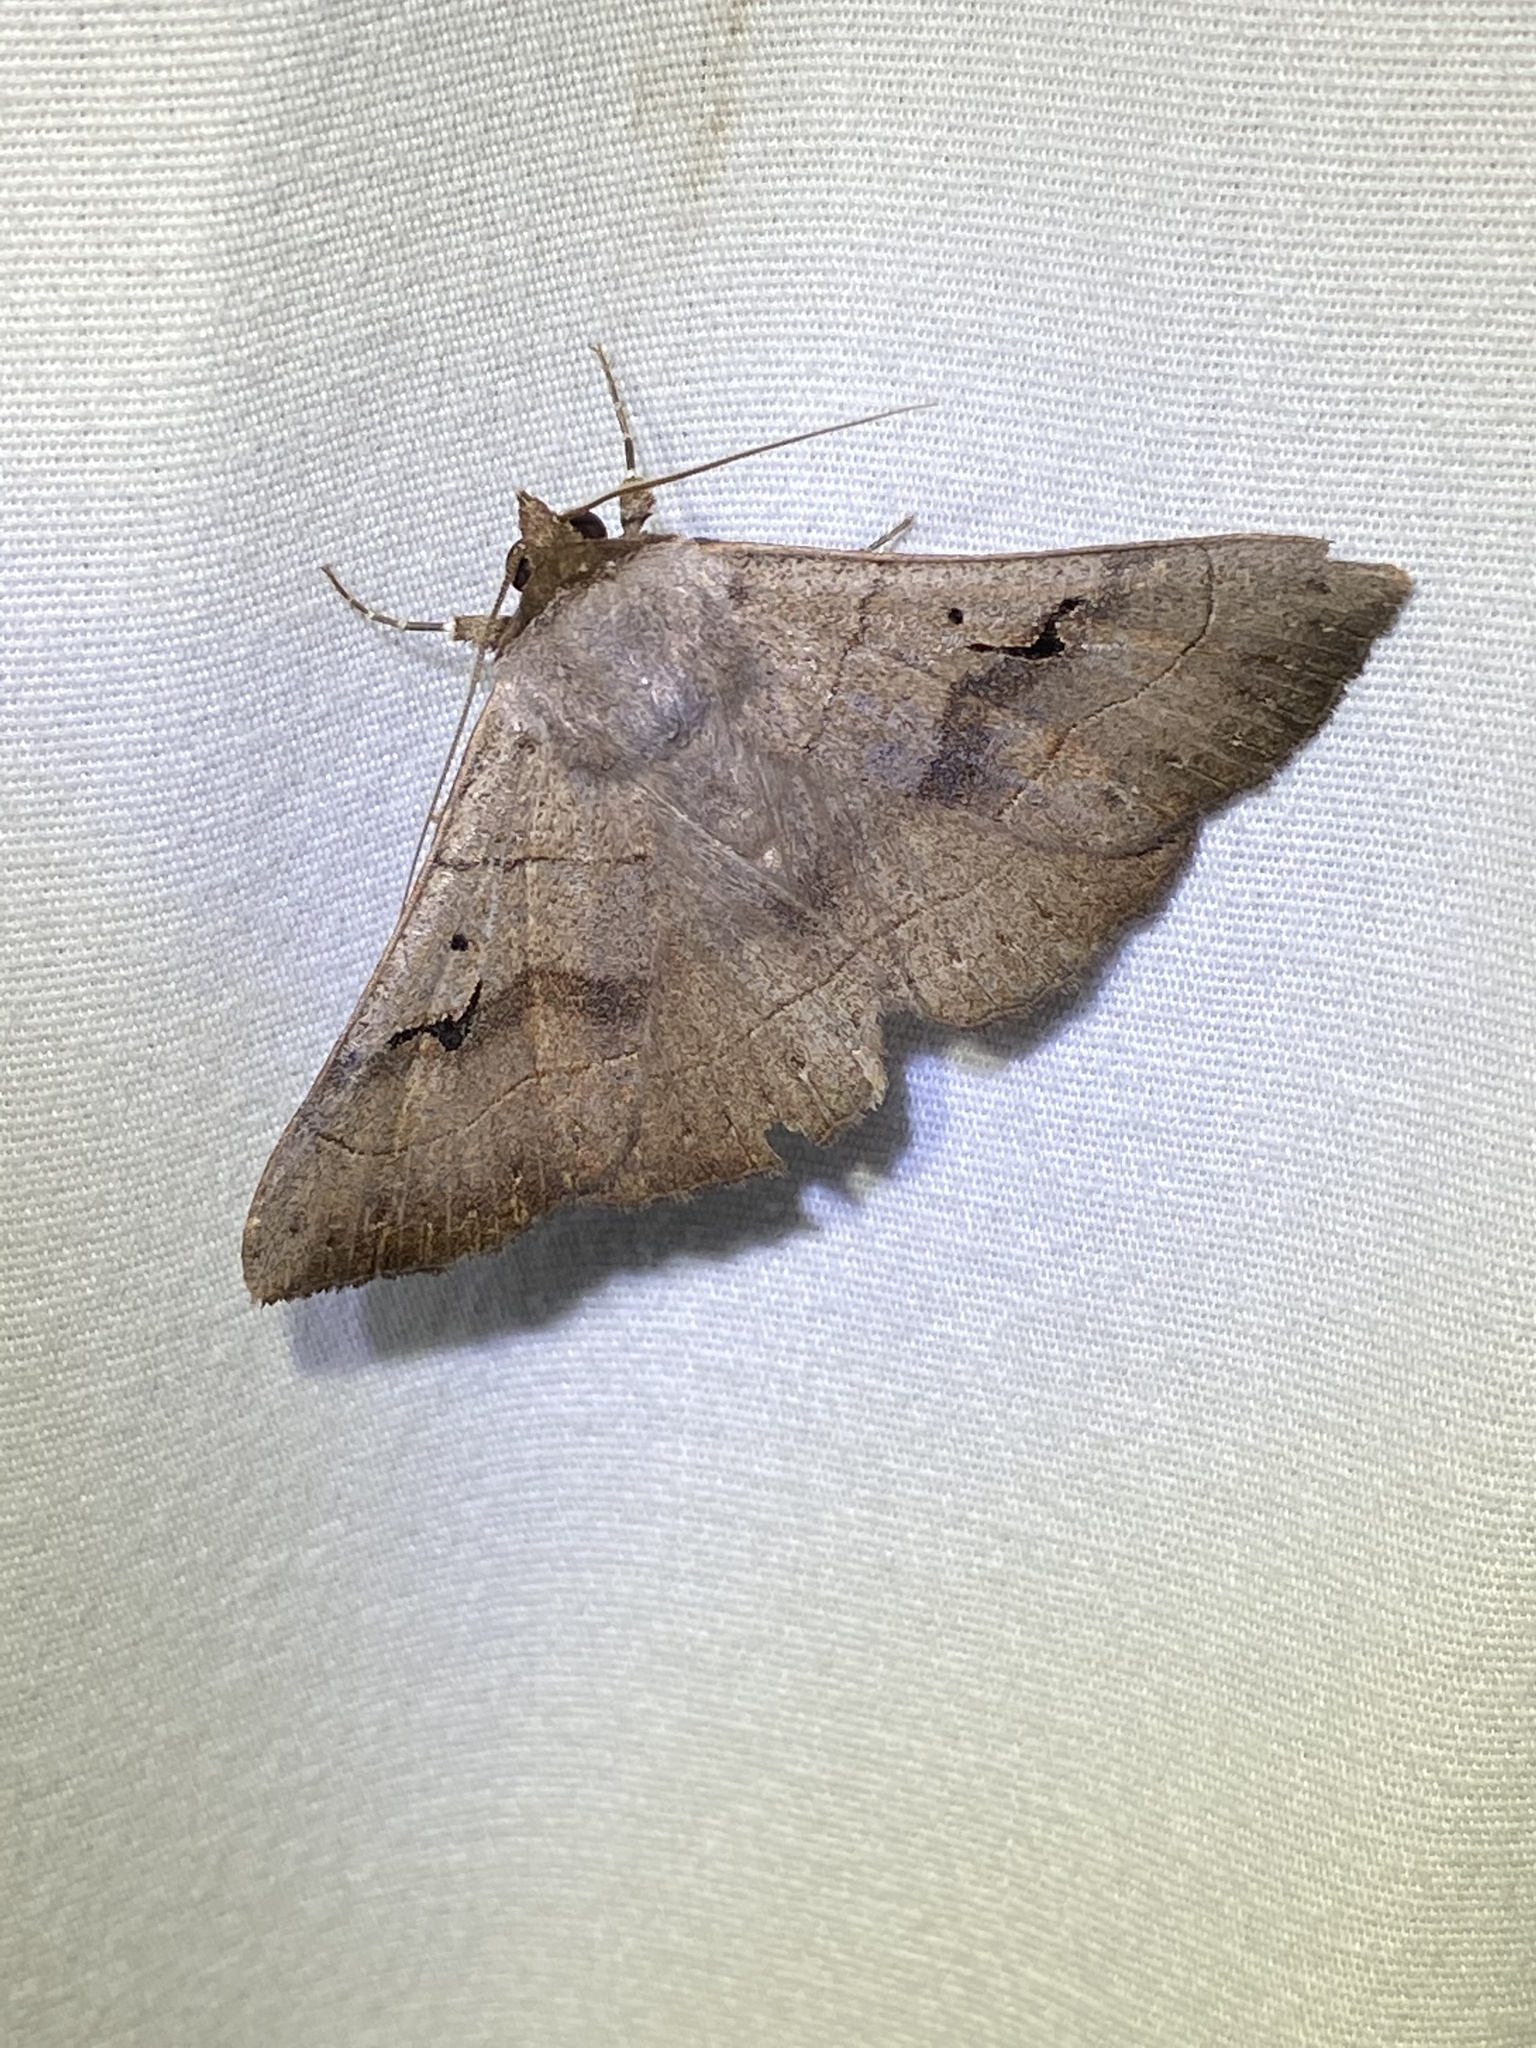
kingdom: Animalia
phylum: Arthropoda
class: Insecta
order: Lepidoptera
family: Erebidae
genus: Panopoda
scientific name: Panopoda carneicosta
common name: Brown panopoda moth
